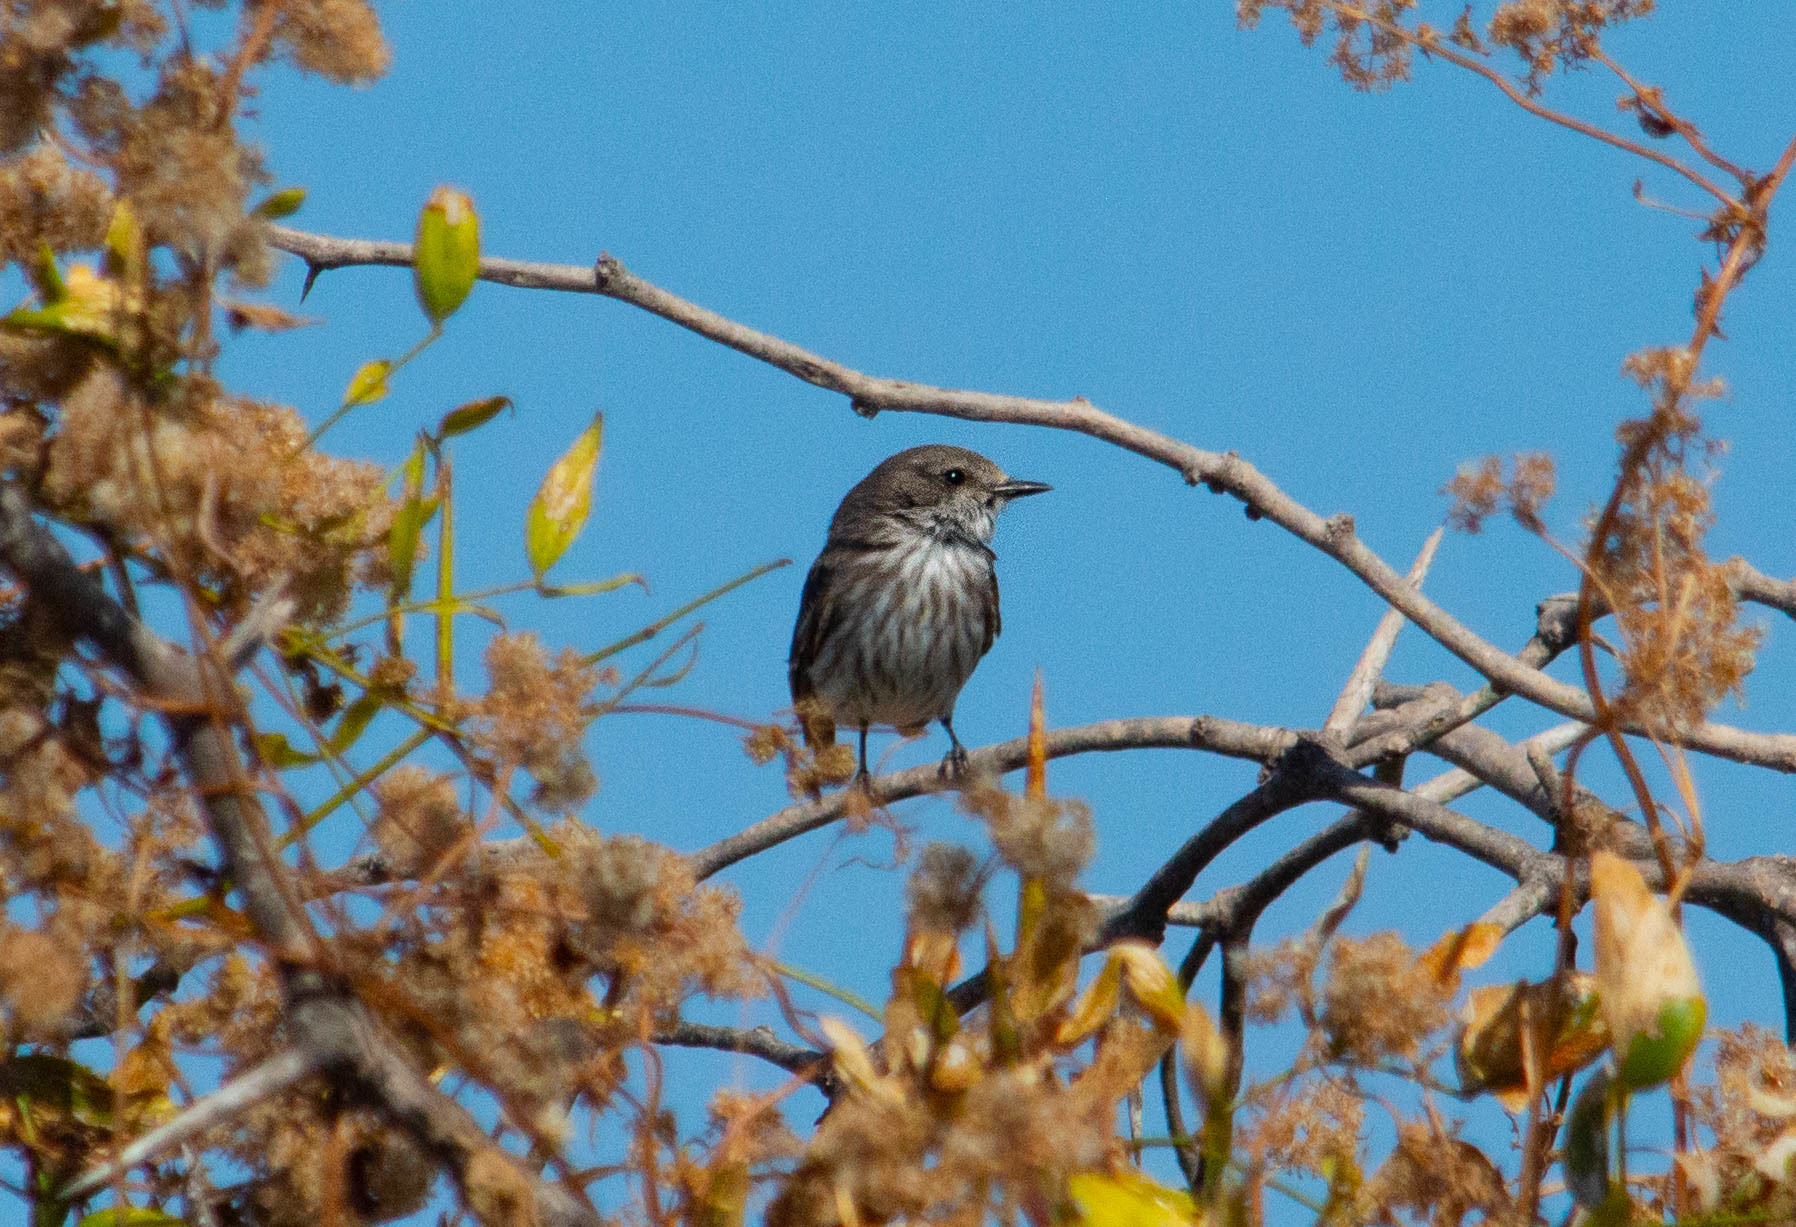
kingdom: Animalia
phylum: Chordata
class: Aves
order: Passeriformes
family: Tyrannidae
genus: Pyrocephalus
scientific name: Pyrocephalus rubinus
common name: Vermilion flycatcher
